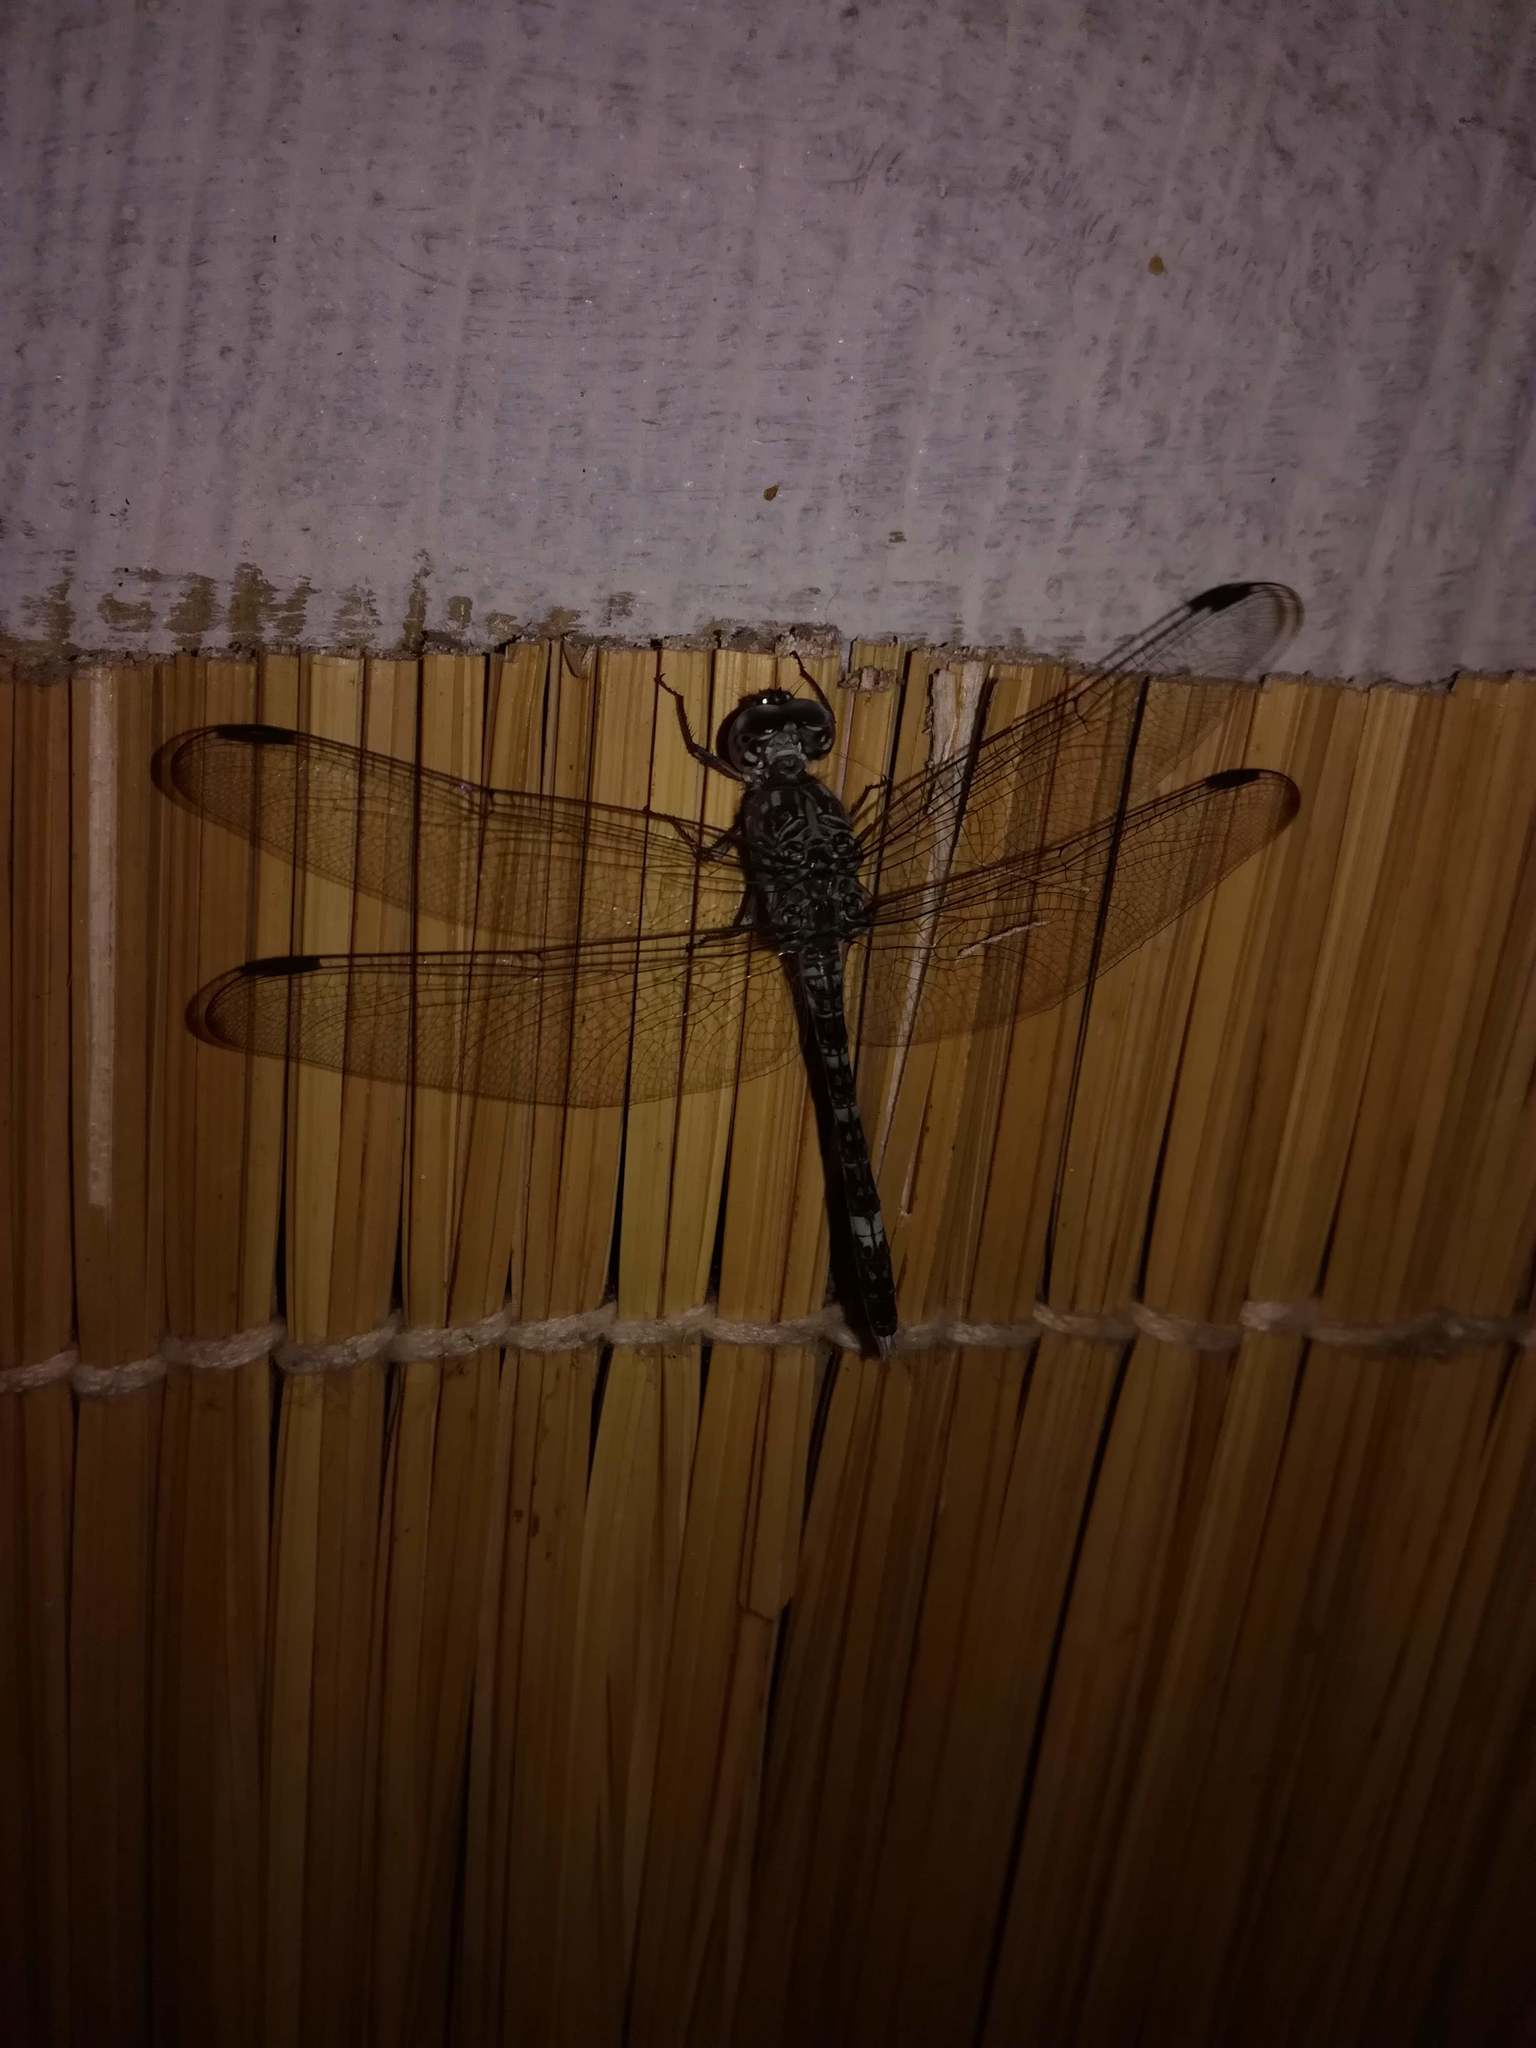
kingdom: Animalia
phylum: Arthropoda
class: Insecta
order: Odonata
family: Libellulidae
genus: Bradinopyga
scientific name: Bradinopyga cornuta
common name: Flecked wall-skimmer
